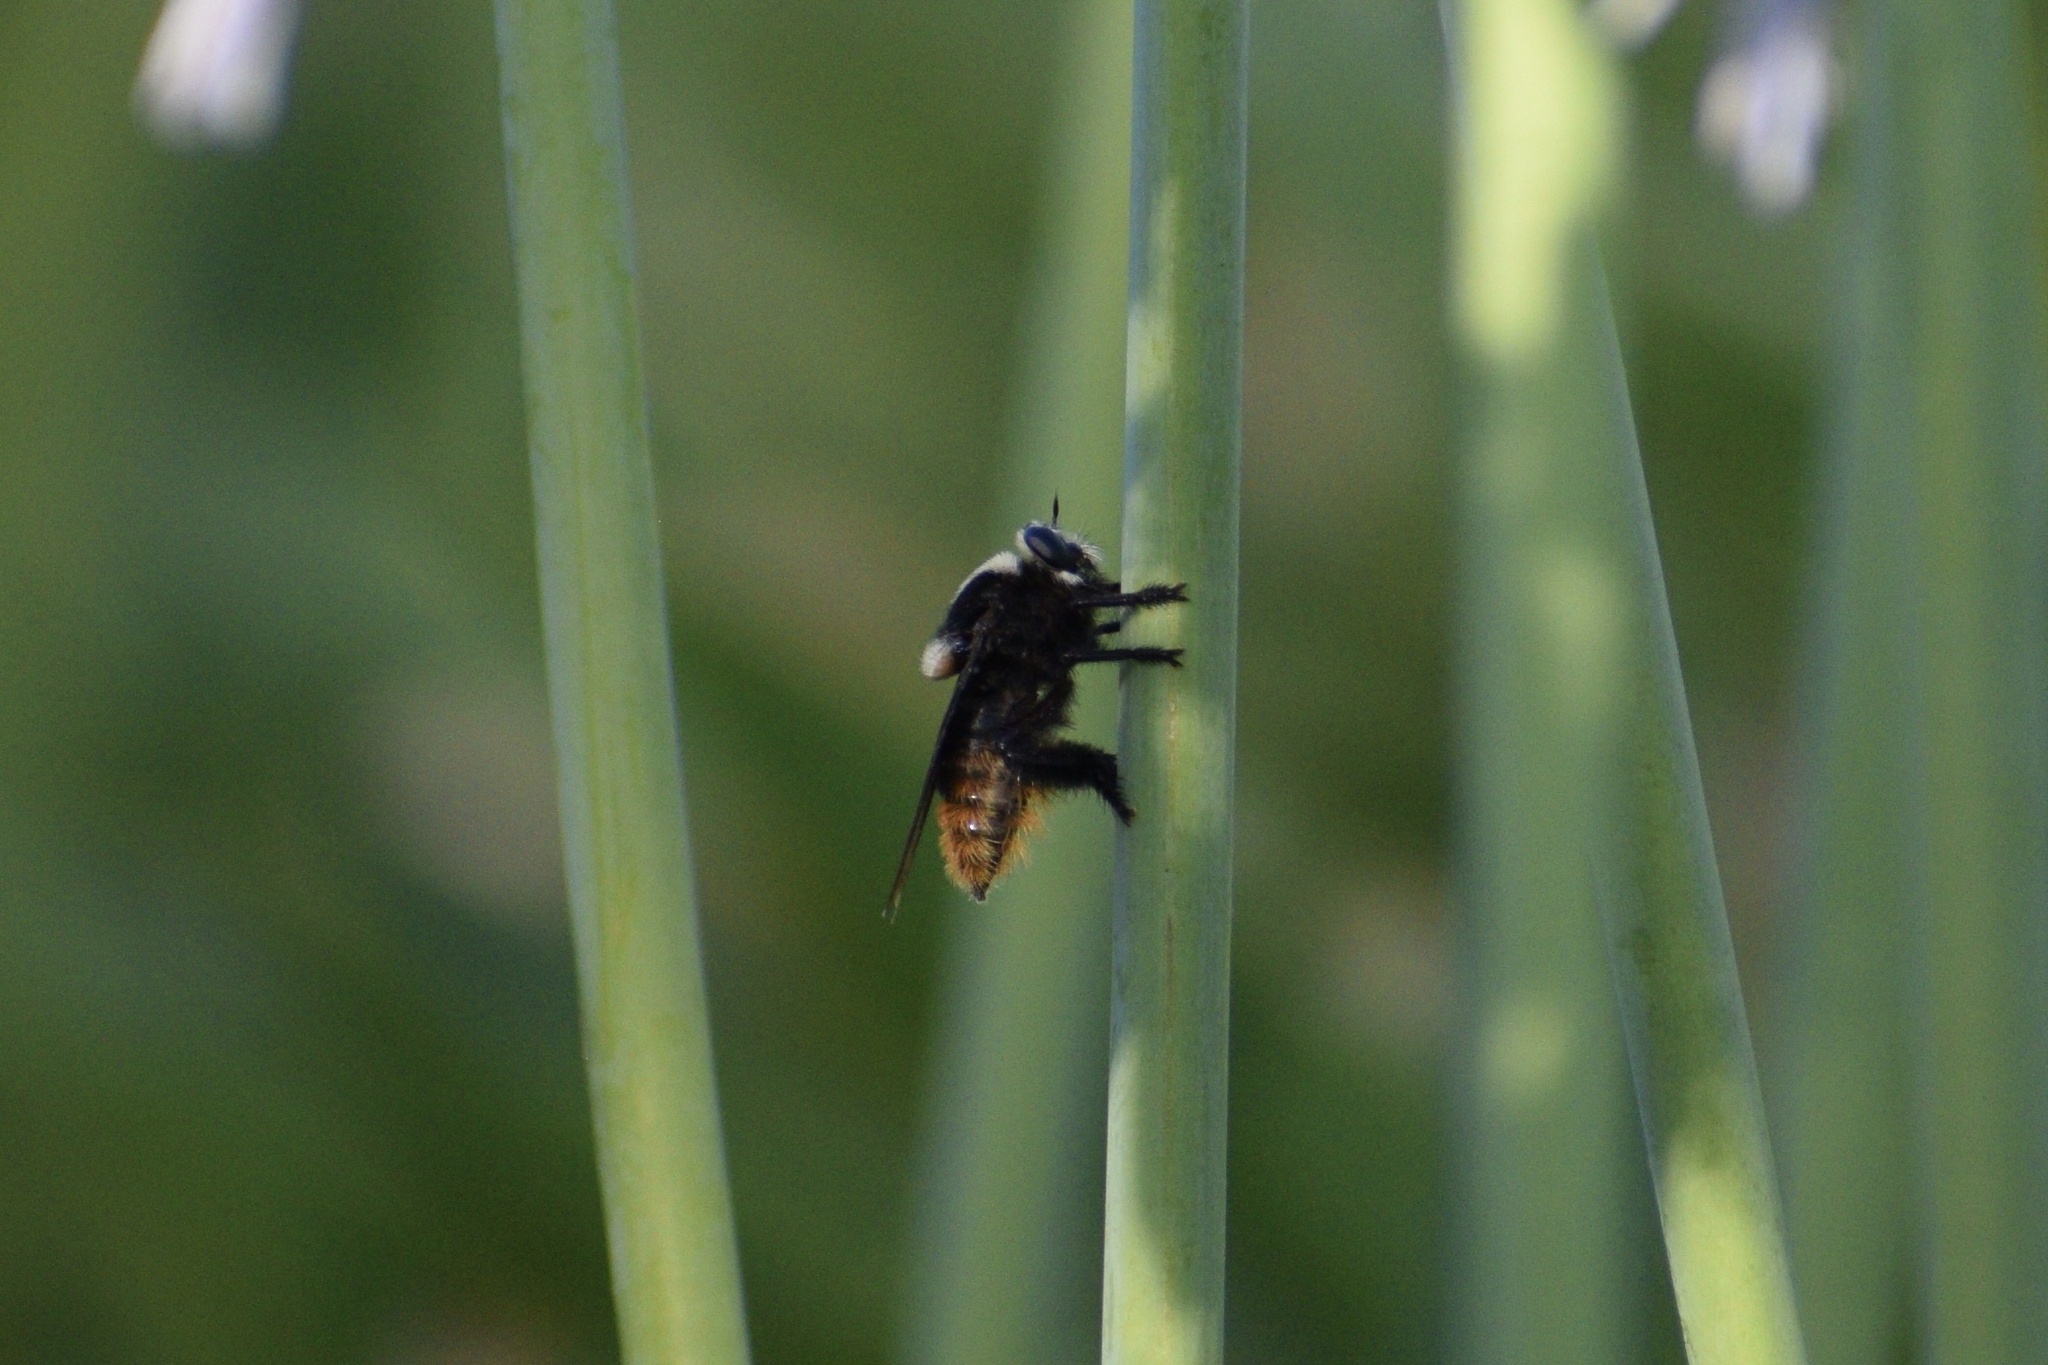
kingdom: Animalia
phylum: Arthropoda
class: Insecta
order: Diptera
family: Asilidae
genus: Mallophora
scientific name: Mallophora ruficauda
